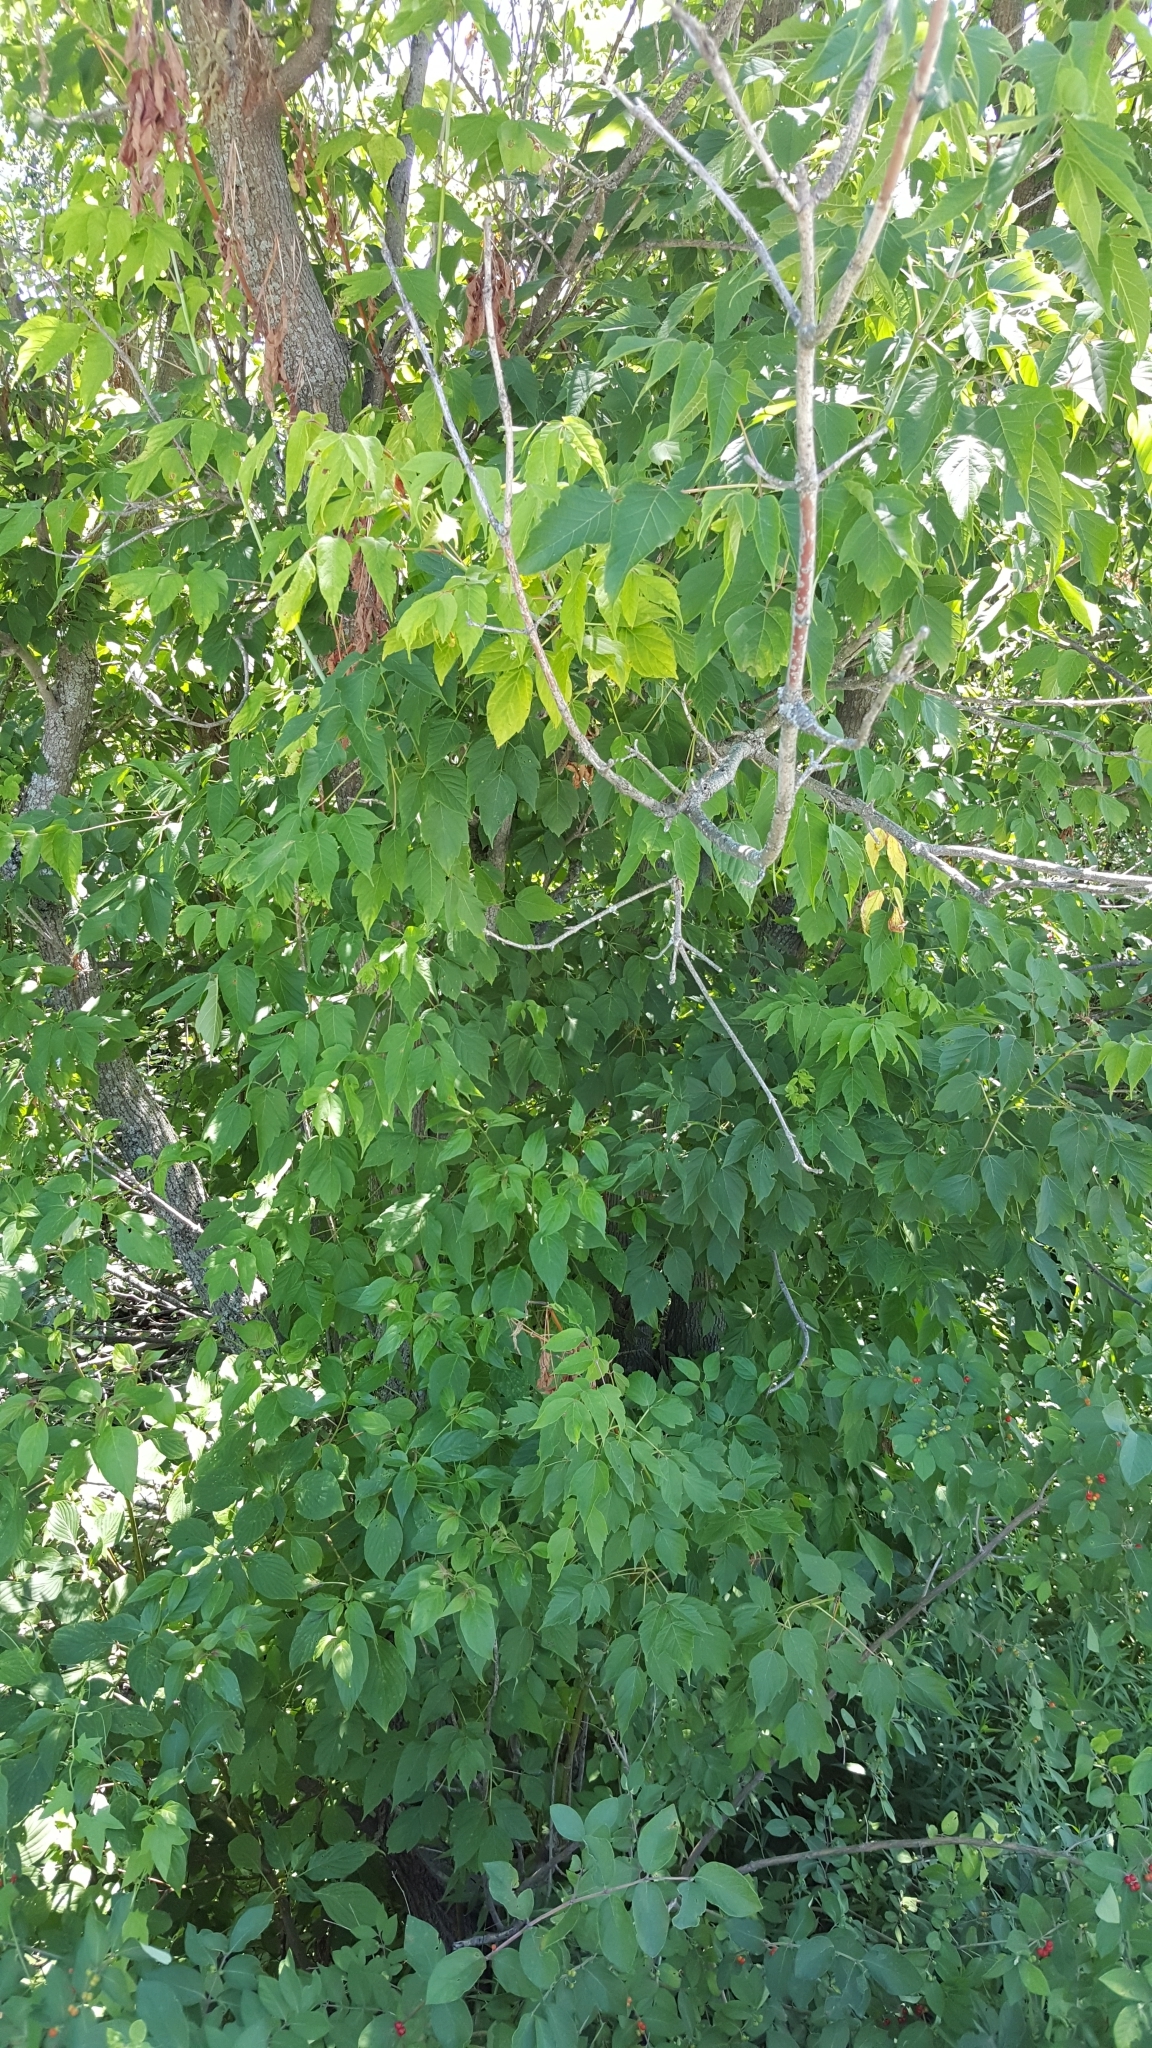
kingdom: Plantae
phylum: Tracheophyta
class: Magnoliopsida
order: Sapindales
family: Sapindaceae
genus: Acer
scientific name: Acer negundo
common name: Ashleaf maple
